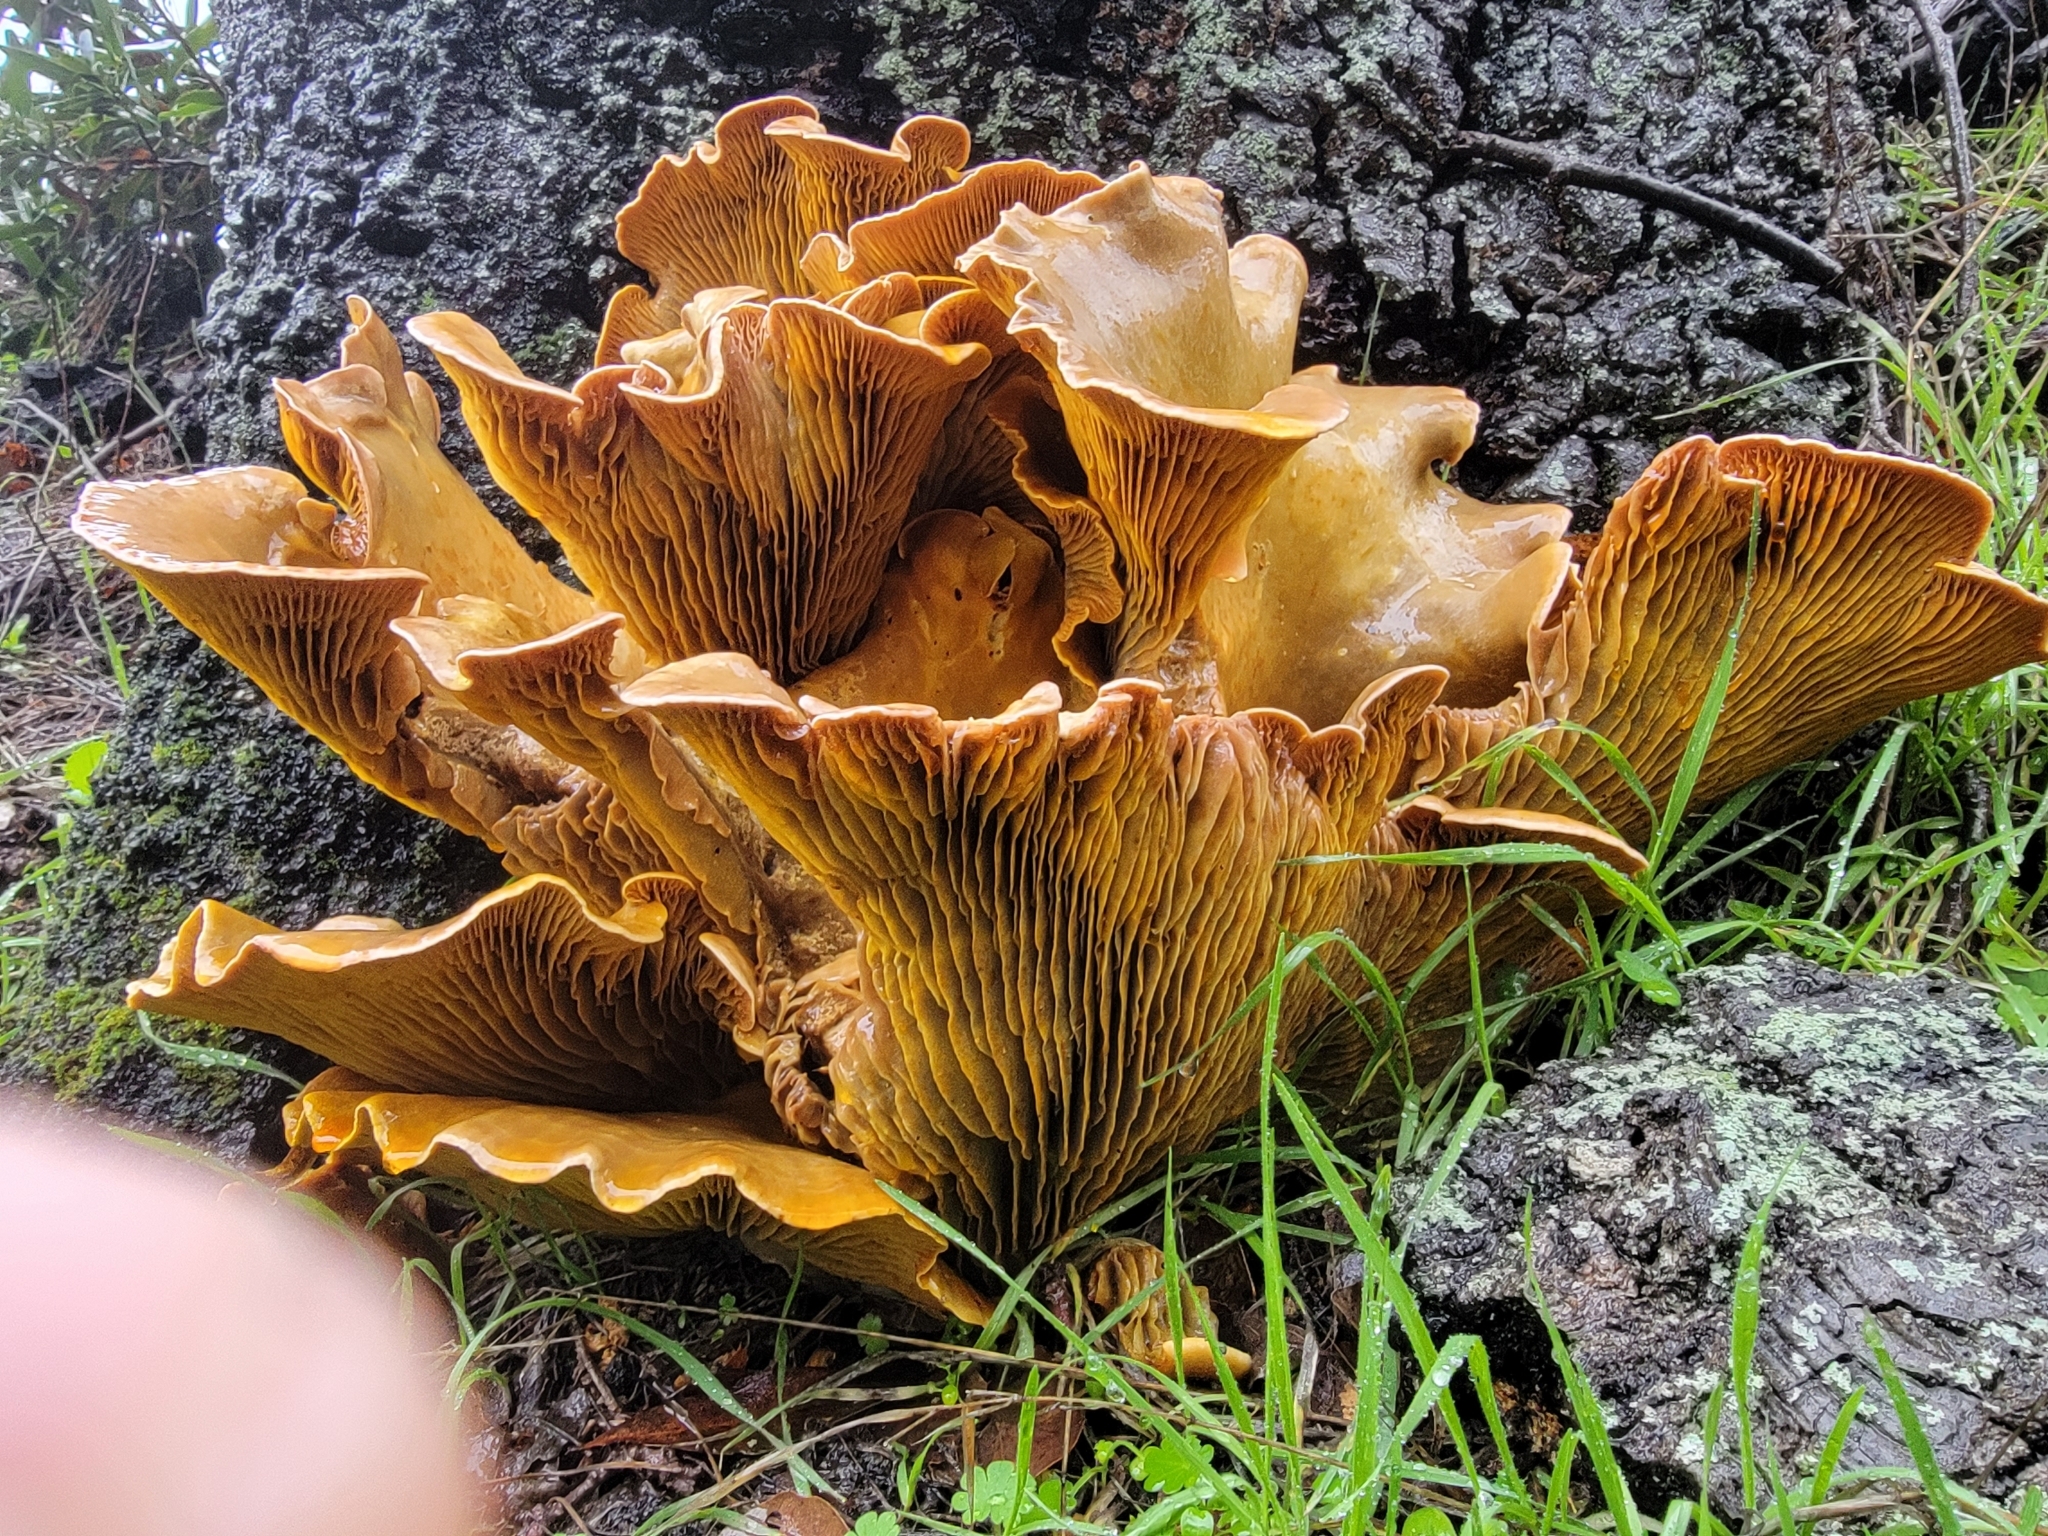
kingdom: Fungi
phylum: Basidiomycota
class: Agaricomycetes
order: Agaricales
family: Omphalotaceae
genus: Omphalotus
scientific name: Omphalotus olivascens
